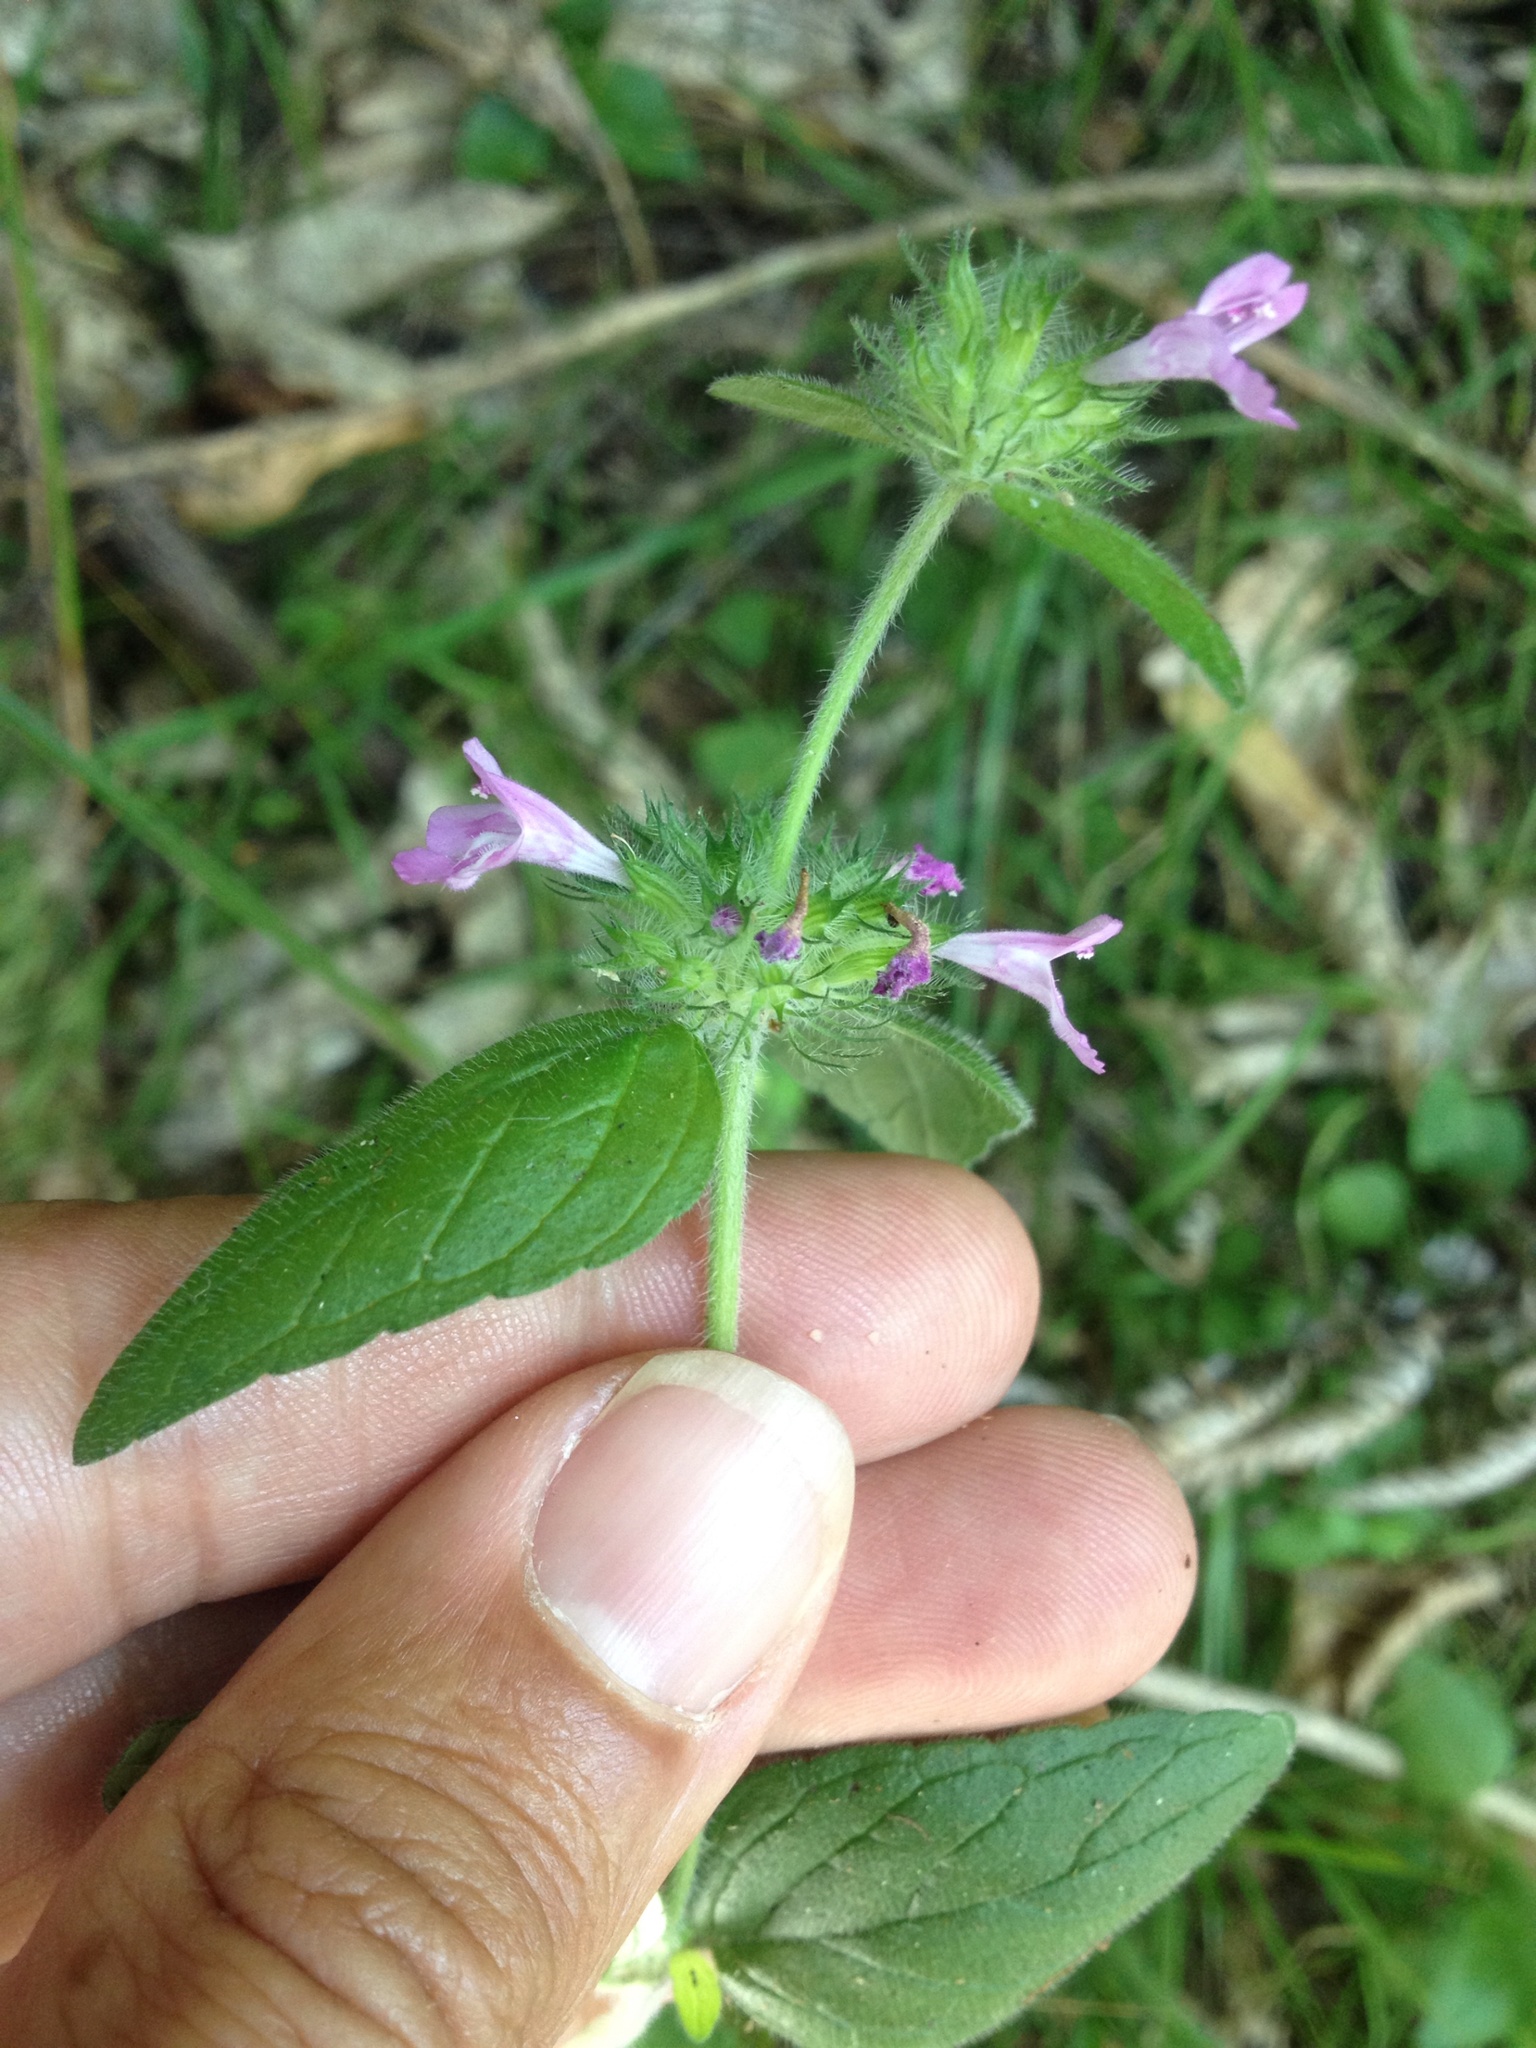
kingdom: Plantae
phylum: Tracheophyta
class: Magnoliopsida
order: Lamiales
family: Lamiaceae
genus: Clinopodium
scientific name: Clinopodium vulgare
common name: Wild basil
